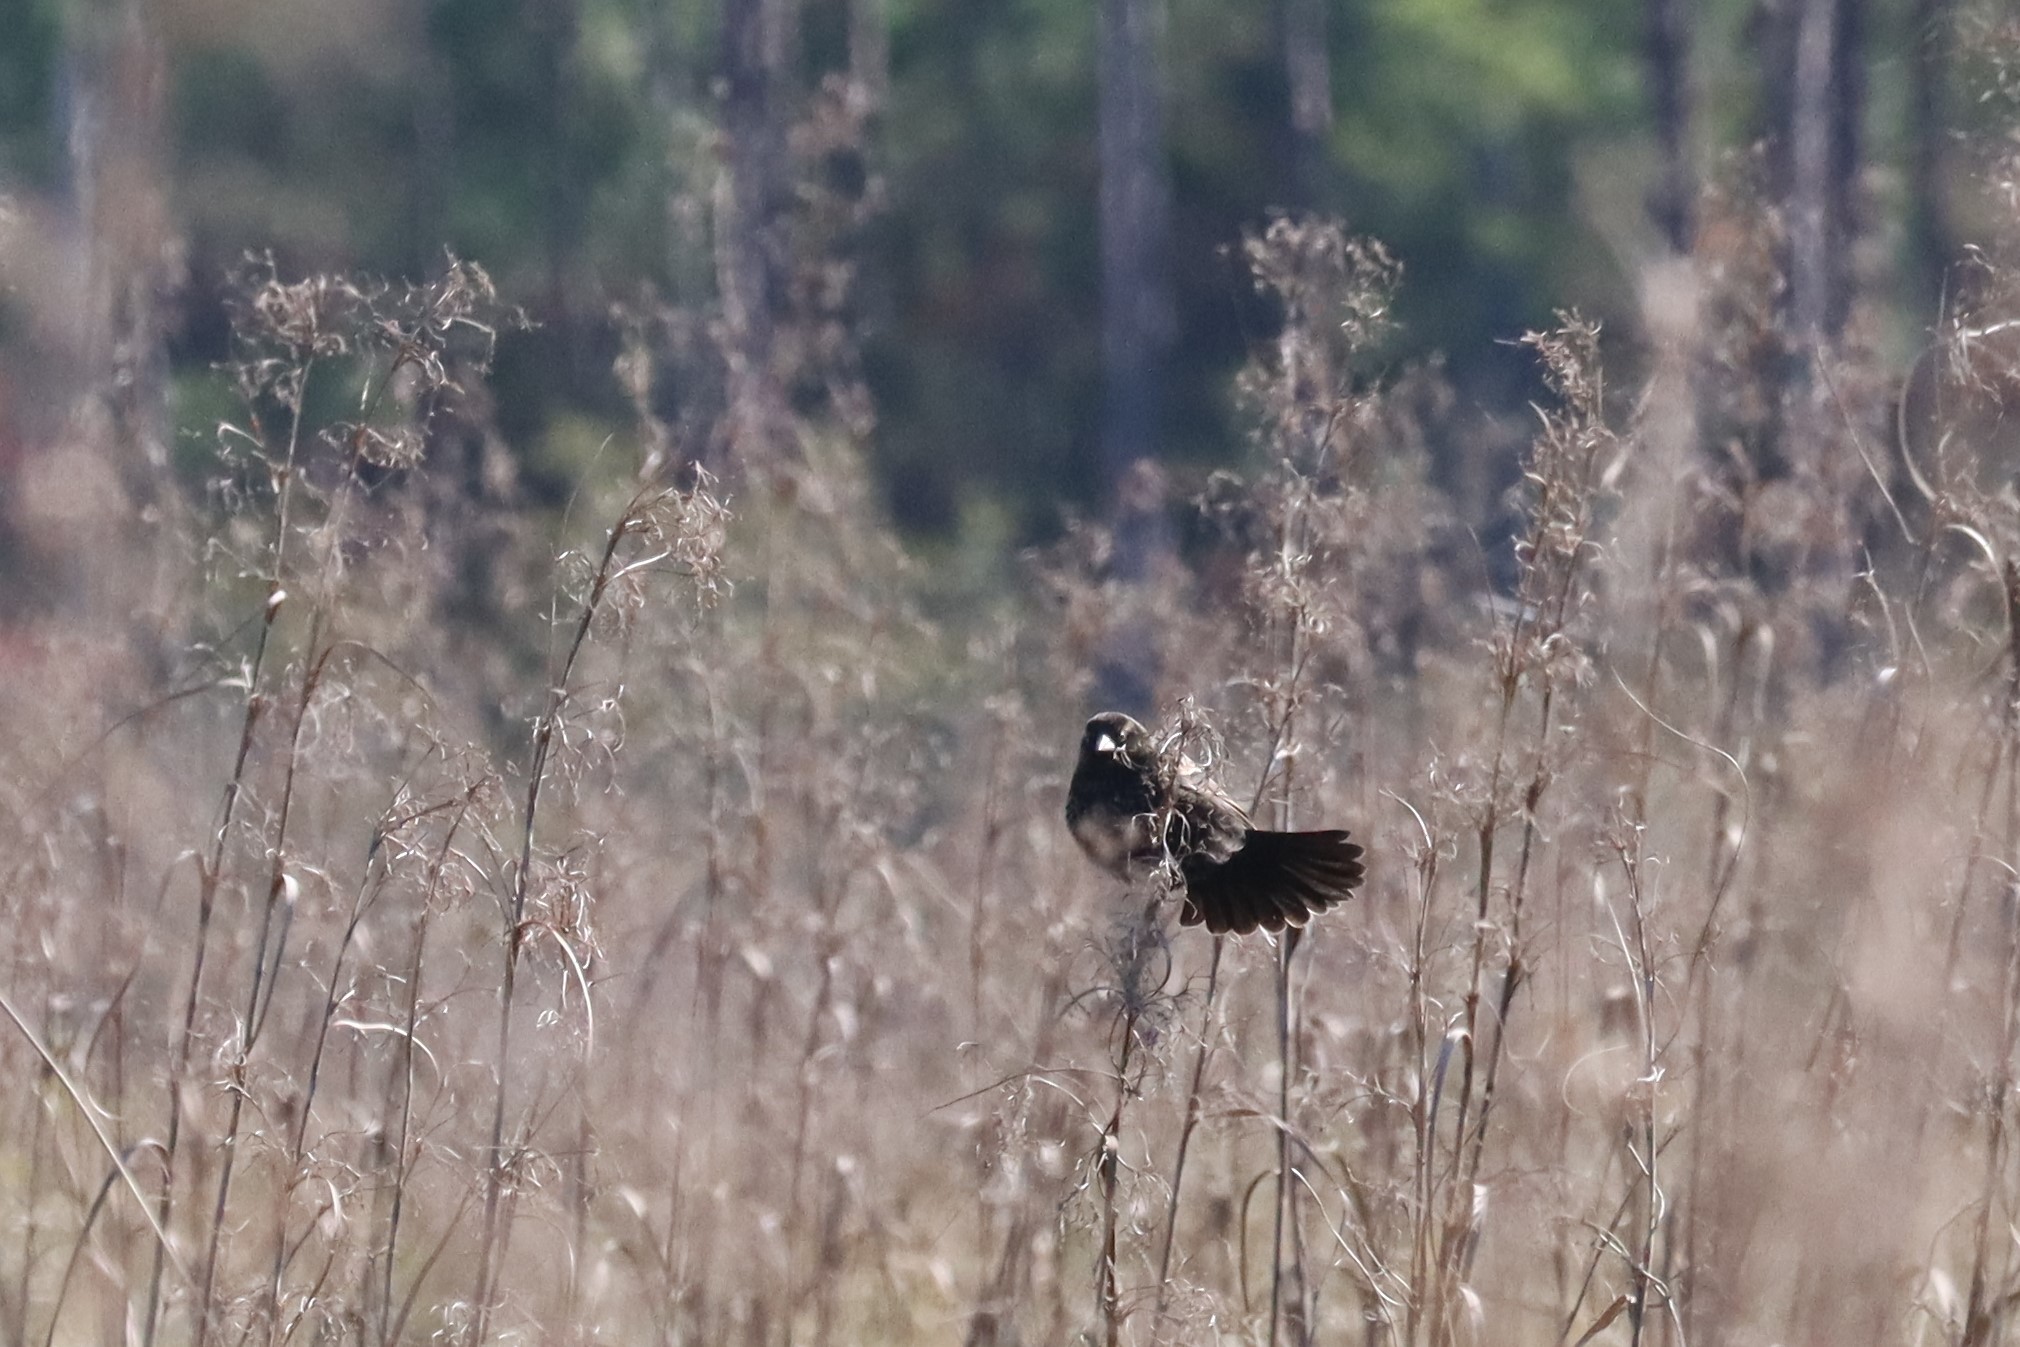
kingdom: Animalia
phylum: Chordata
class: Aves
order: Passeriformes
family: Icteridae
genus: Agelaius
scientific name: Agelaius phoeniceus
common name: Red-winged blackbird
